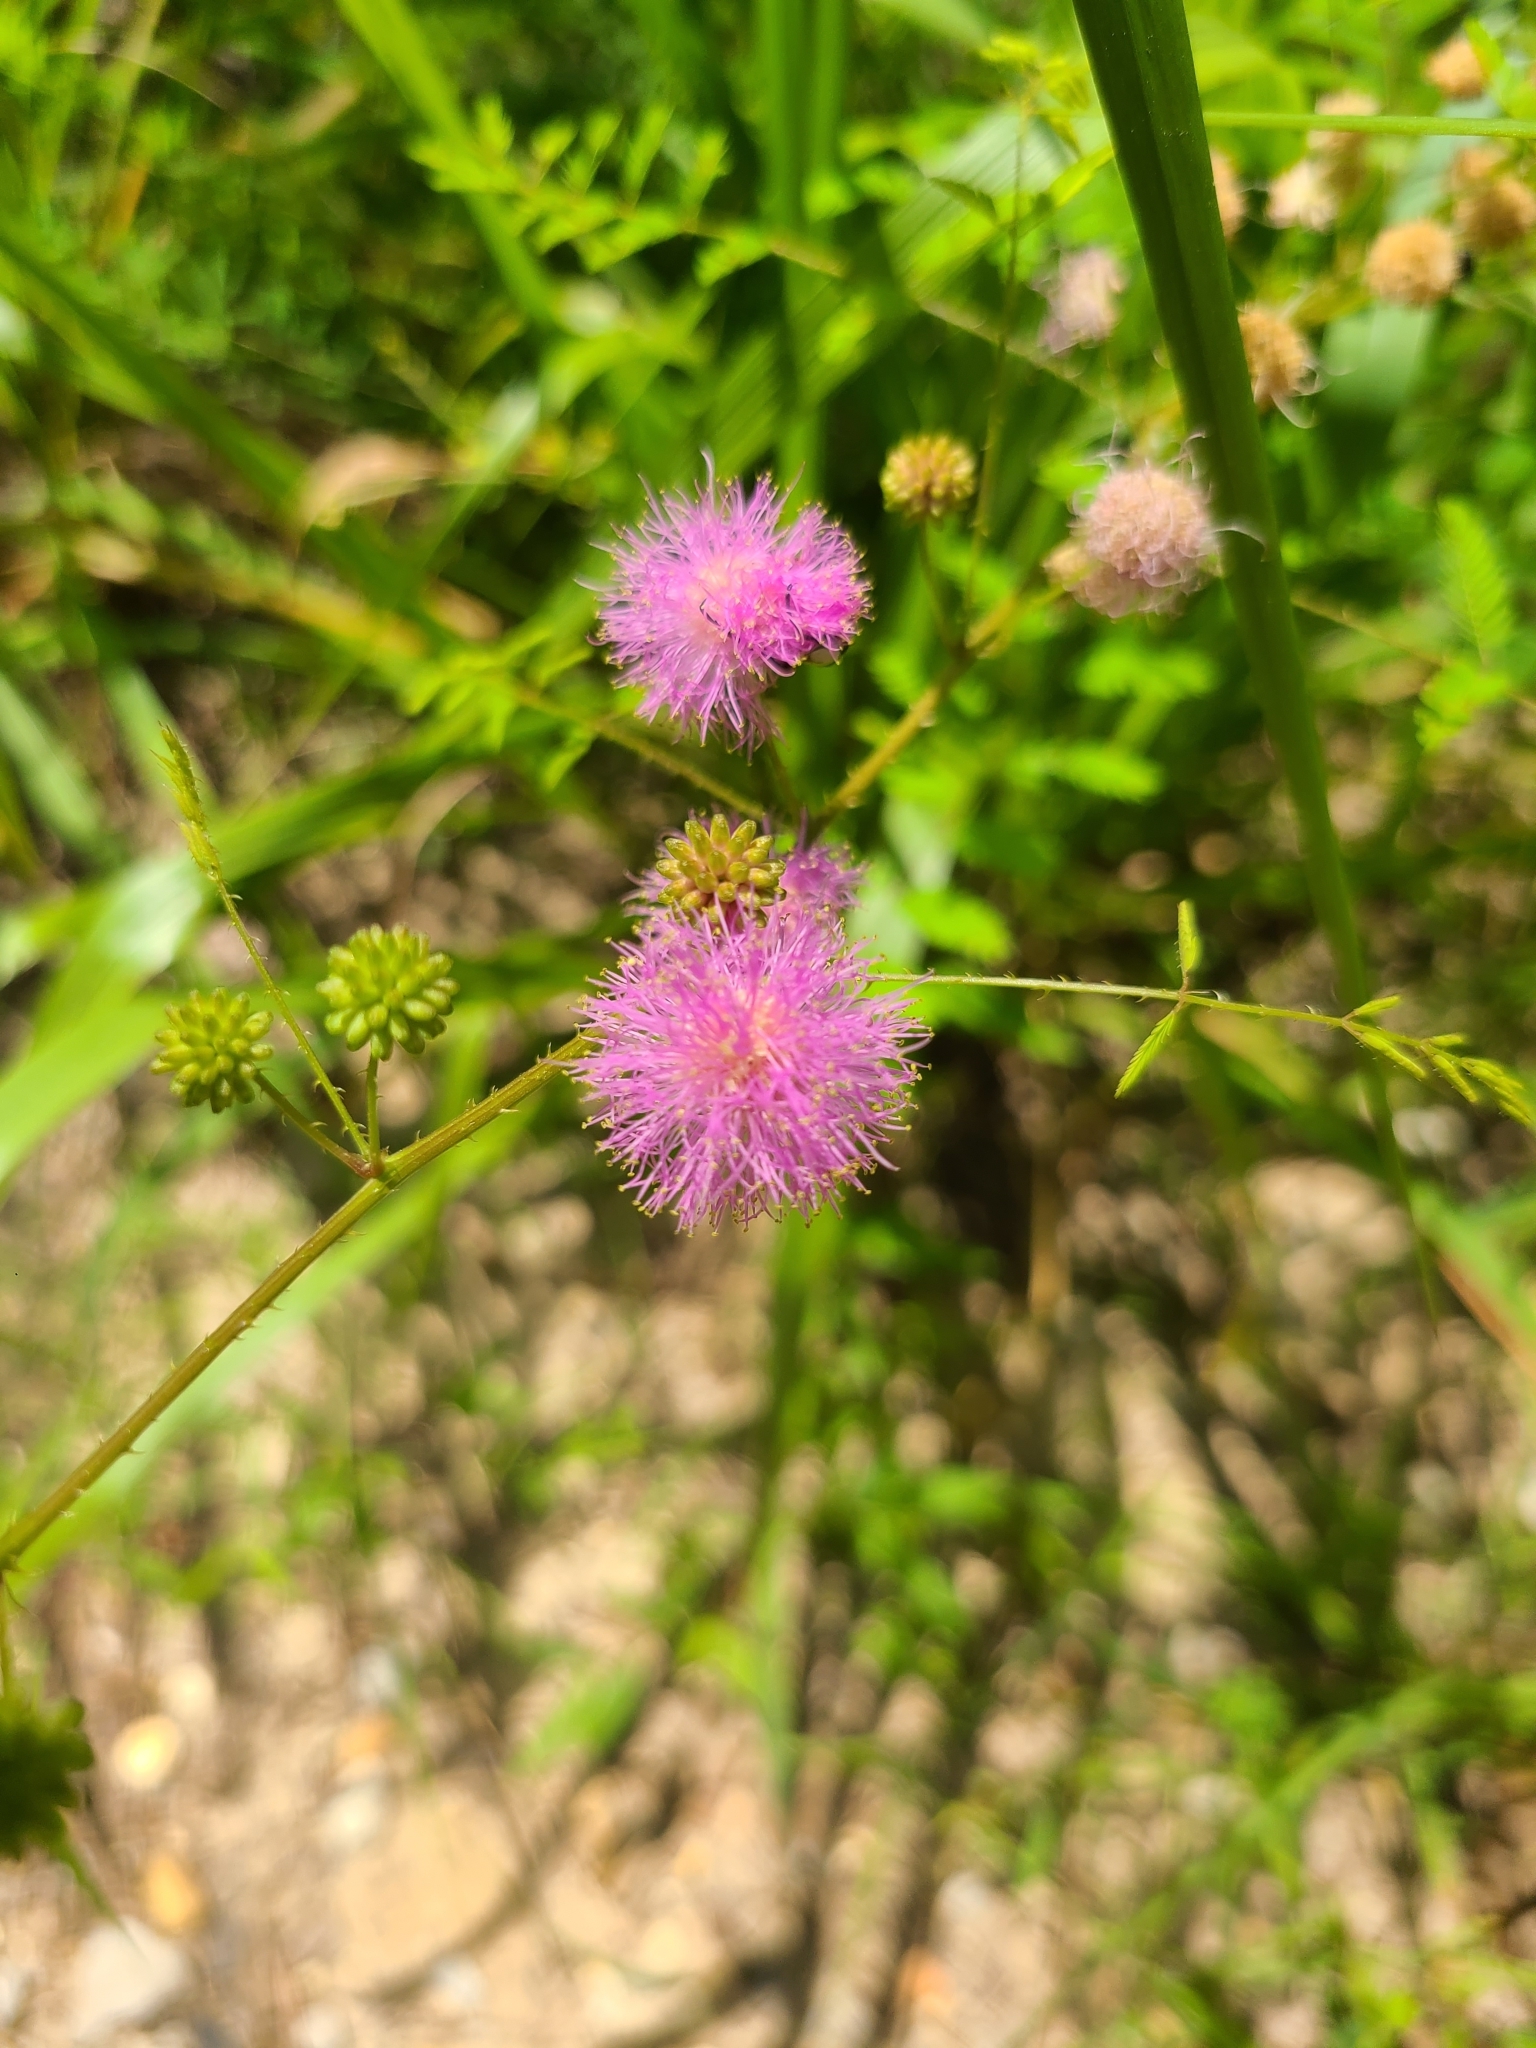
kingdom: Plantae
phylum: Tracheophyta
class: Magnoliopsida
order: Fabales
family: Fabaceae
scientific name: Fabaceae
